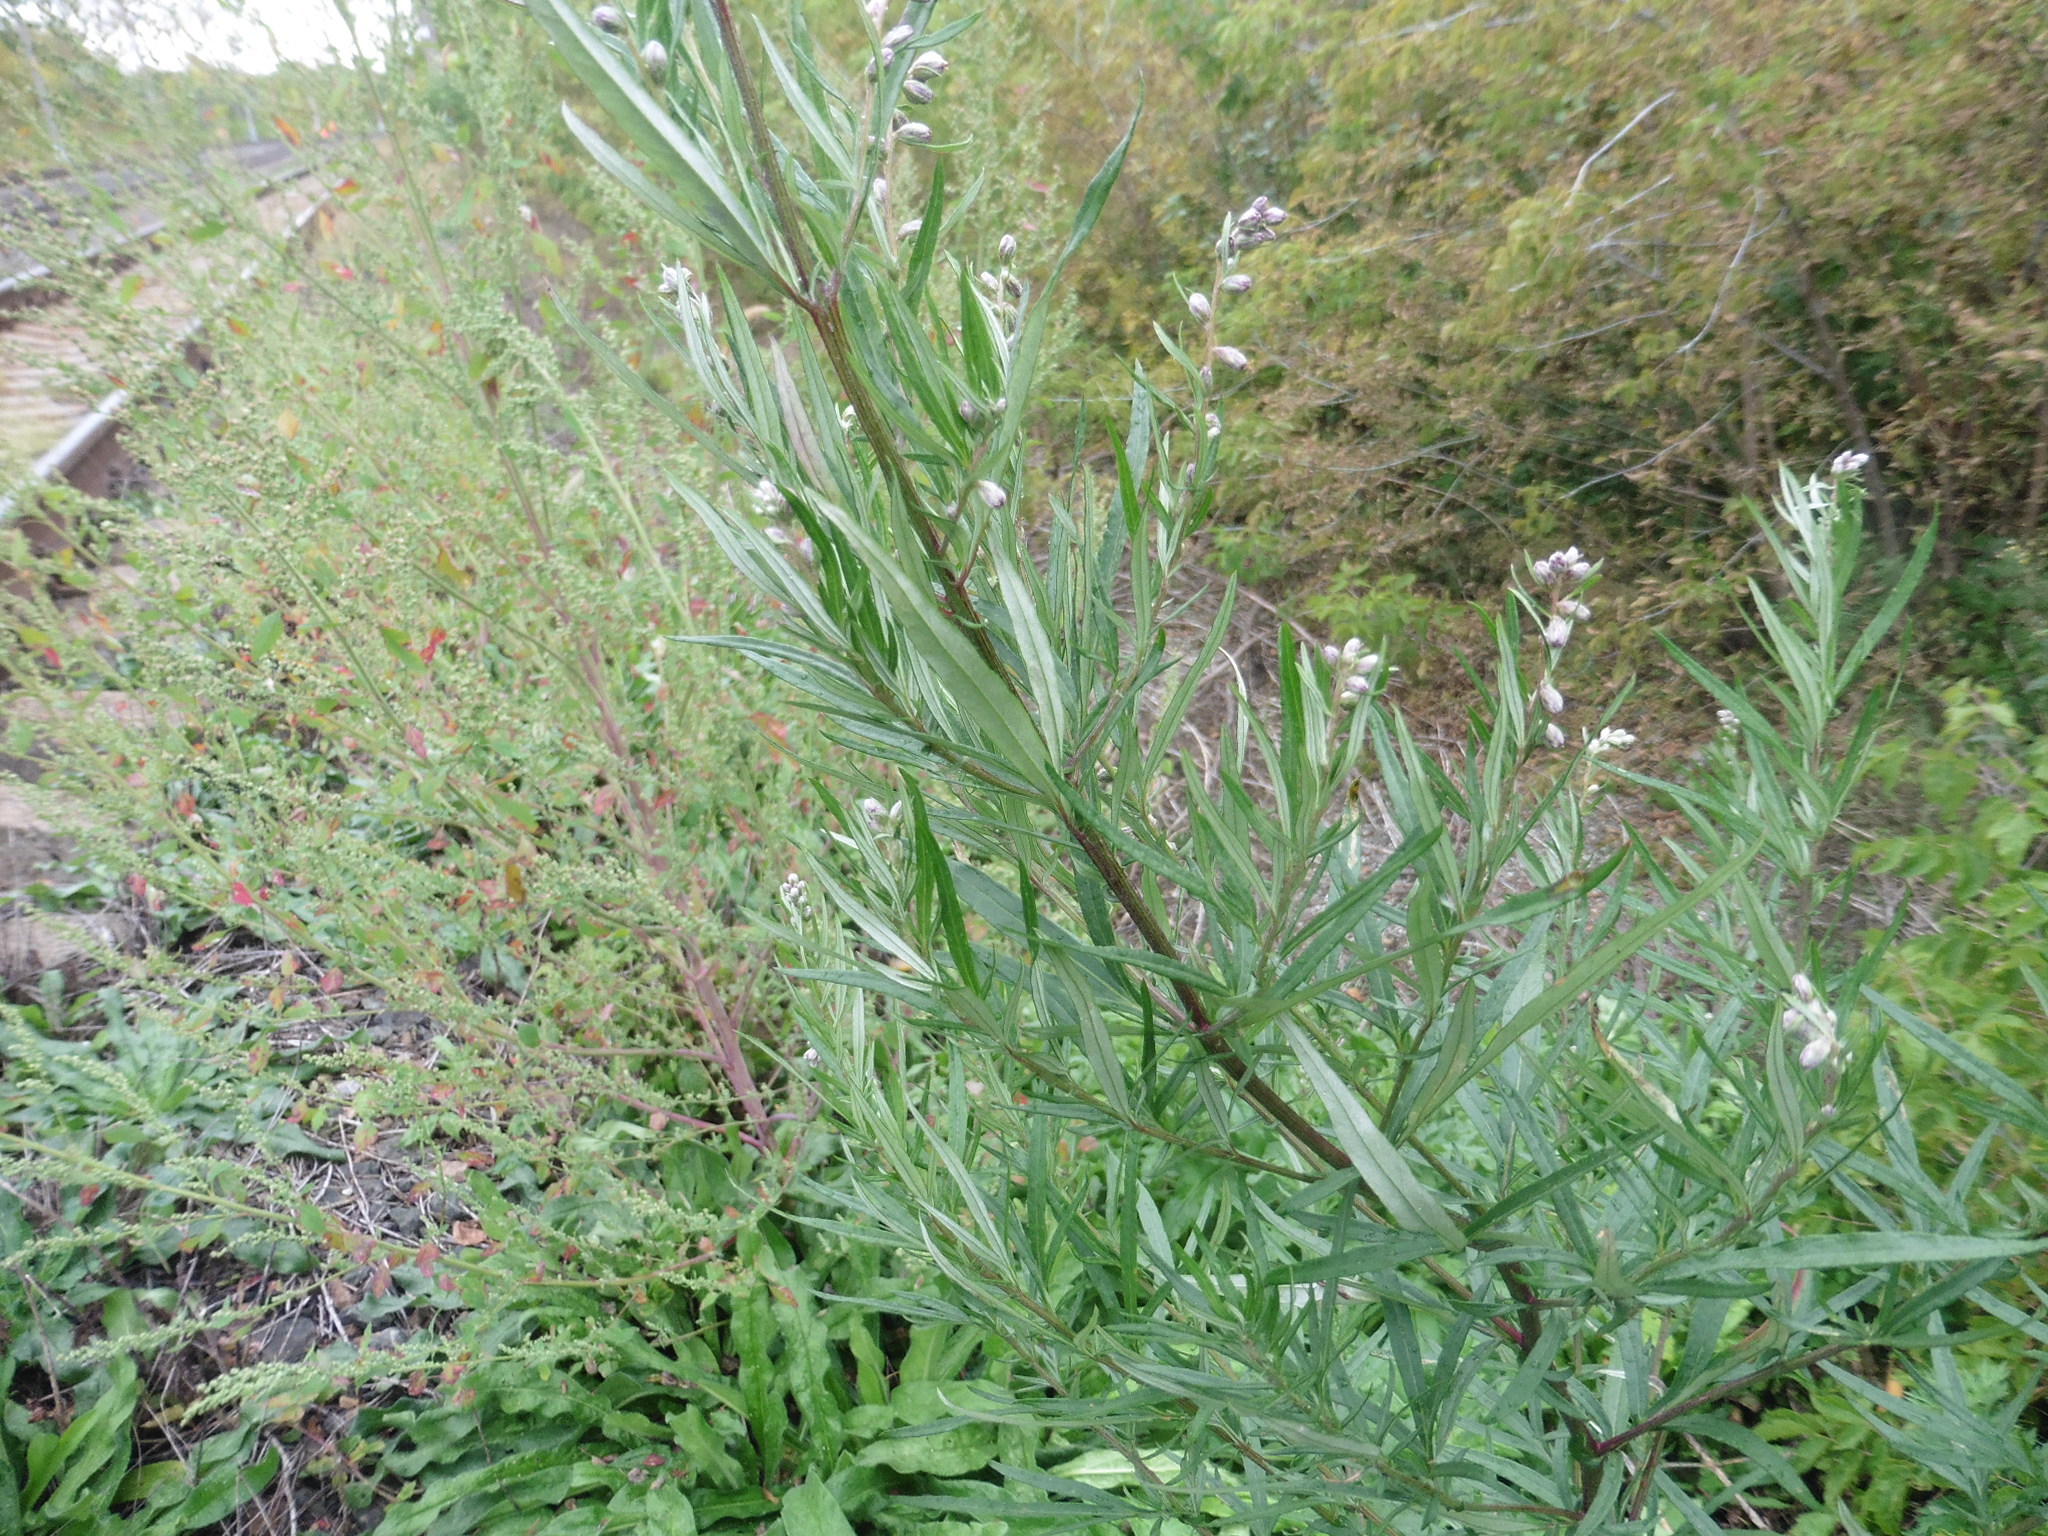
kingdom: Plantae
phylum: Tracheophyta
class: Magnoliopsida
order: Asterales
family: Asteraceae
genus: Artemisia
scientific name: Artemisia vulgaris
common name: Mugwort
